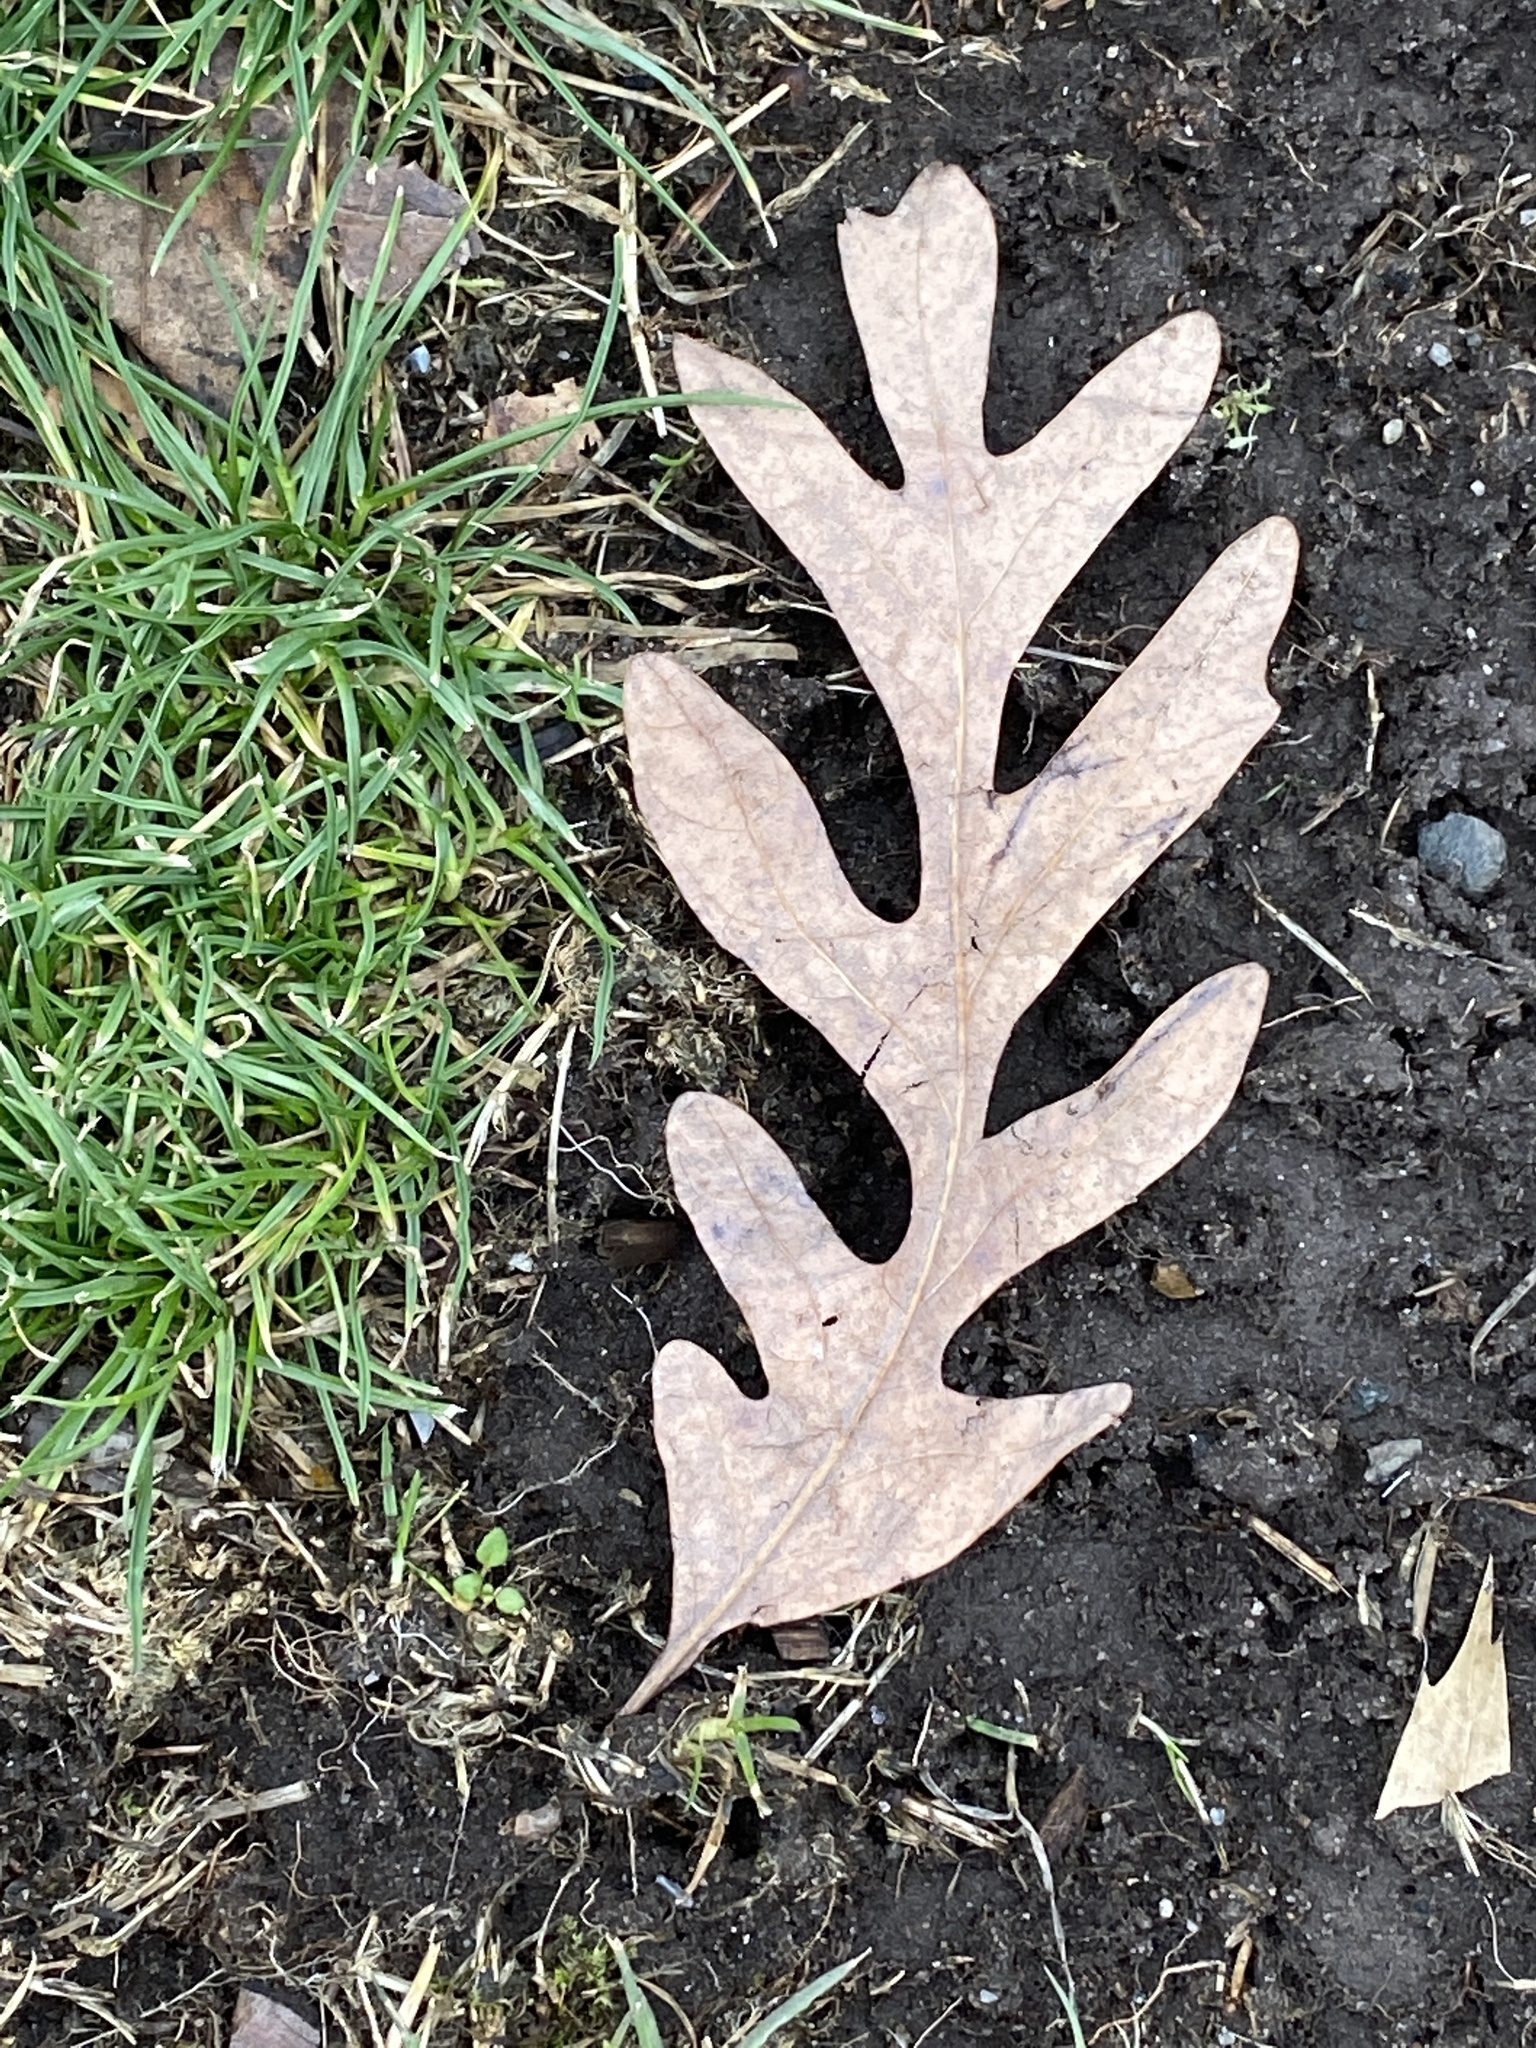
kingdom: Plantae
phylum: Tracheophyta
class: Magnoliopsida
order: Fagales
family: Fagaceae
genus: Quercus
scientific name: Quercus alba
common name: White oak
